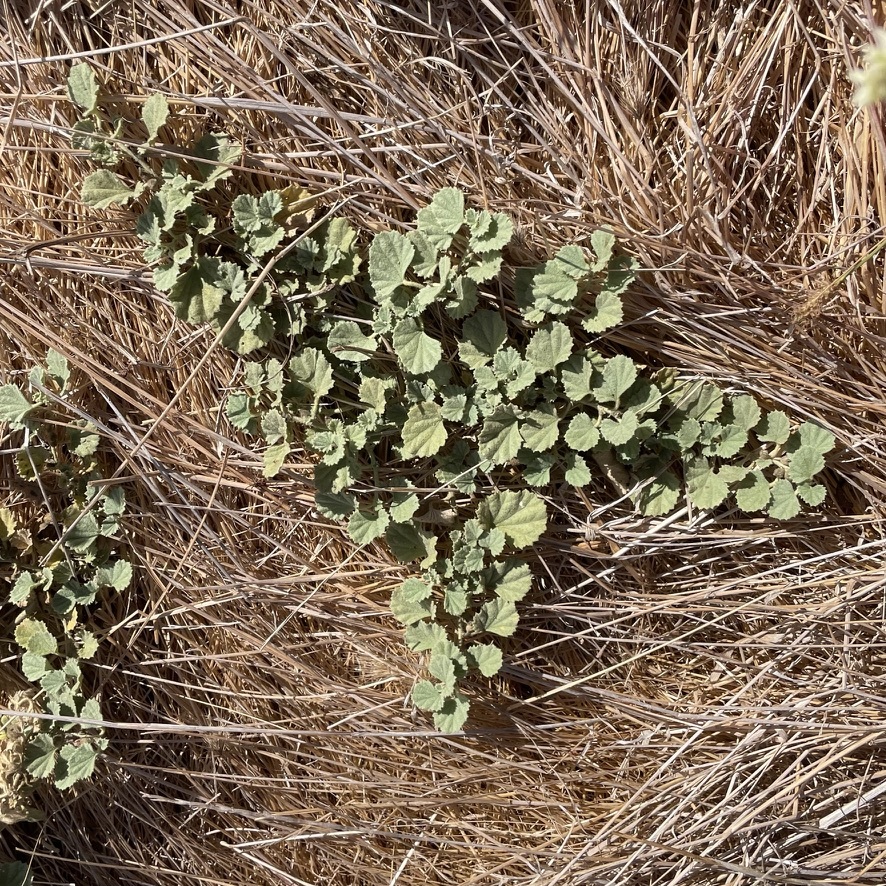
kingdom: Plantae
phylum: Tracheophyta
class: Magnoliopsida
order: Malvales
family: Malvaceae
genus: Malvella
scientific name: Malvella leprosa
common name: Alkali-mallow
